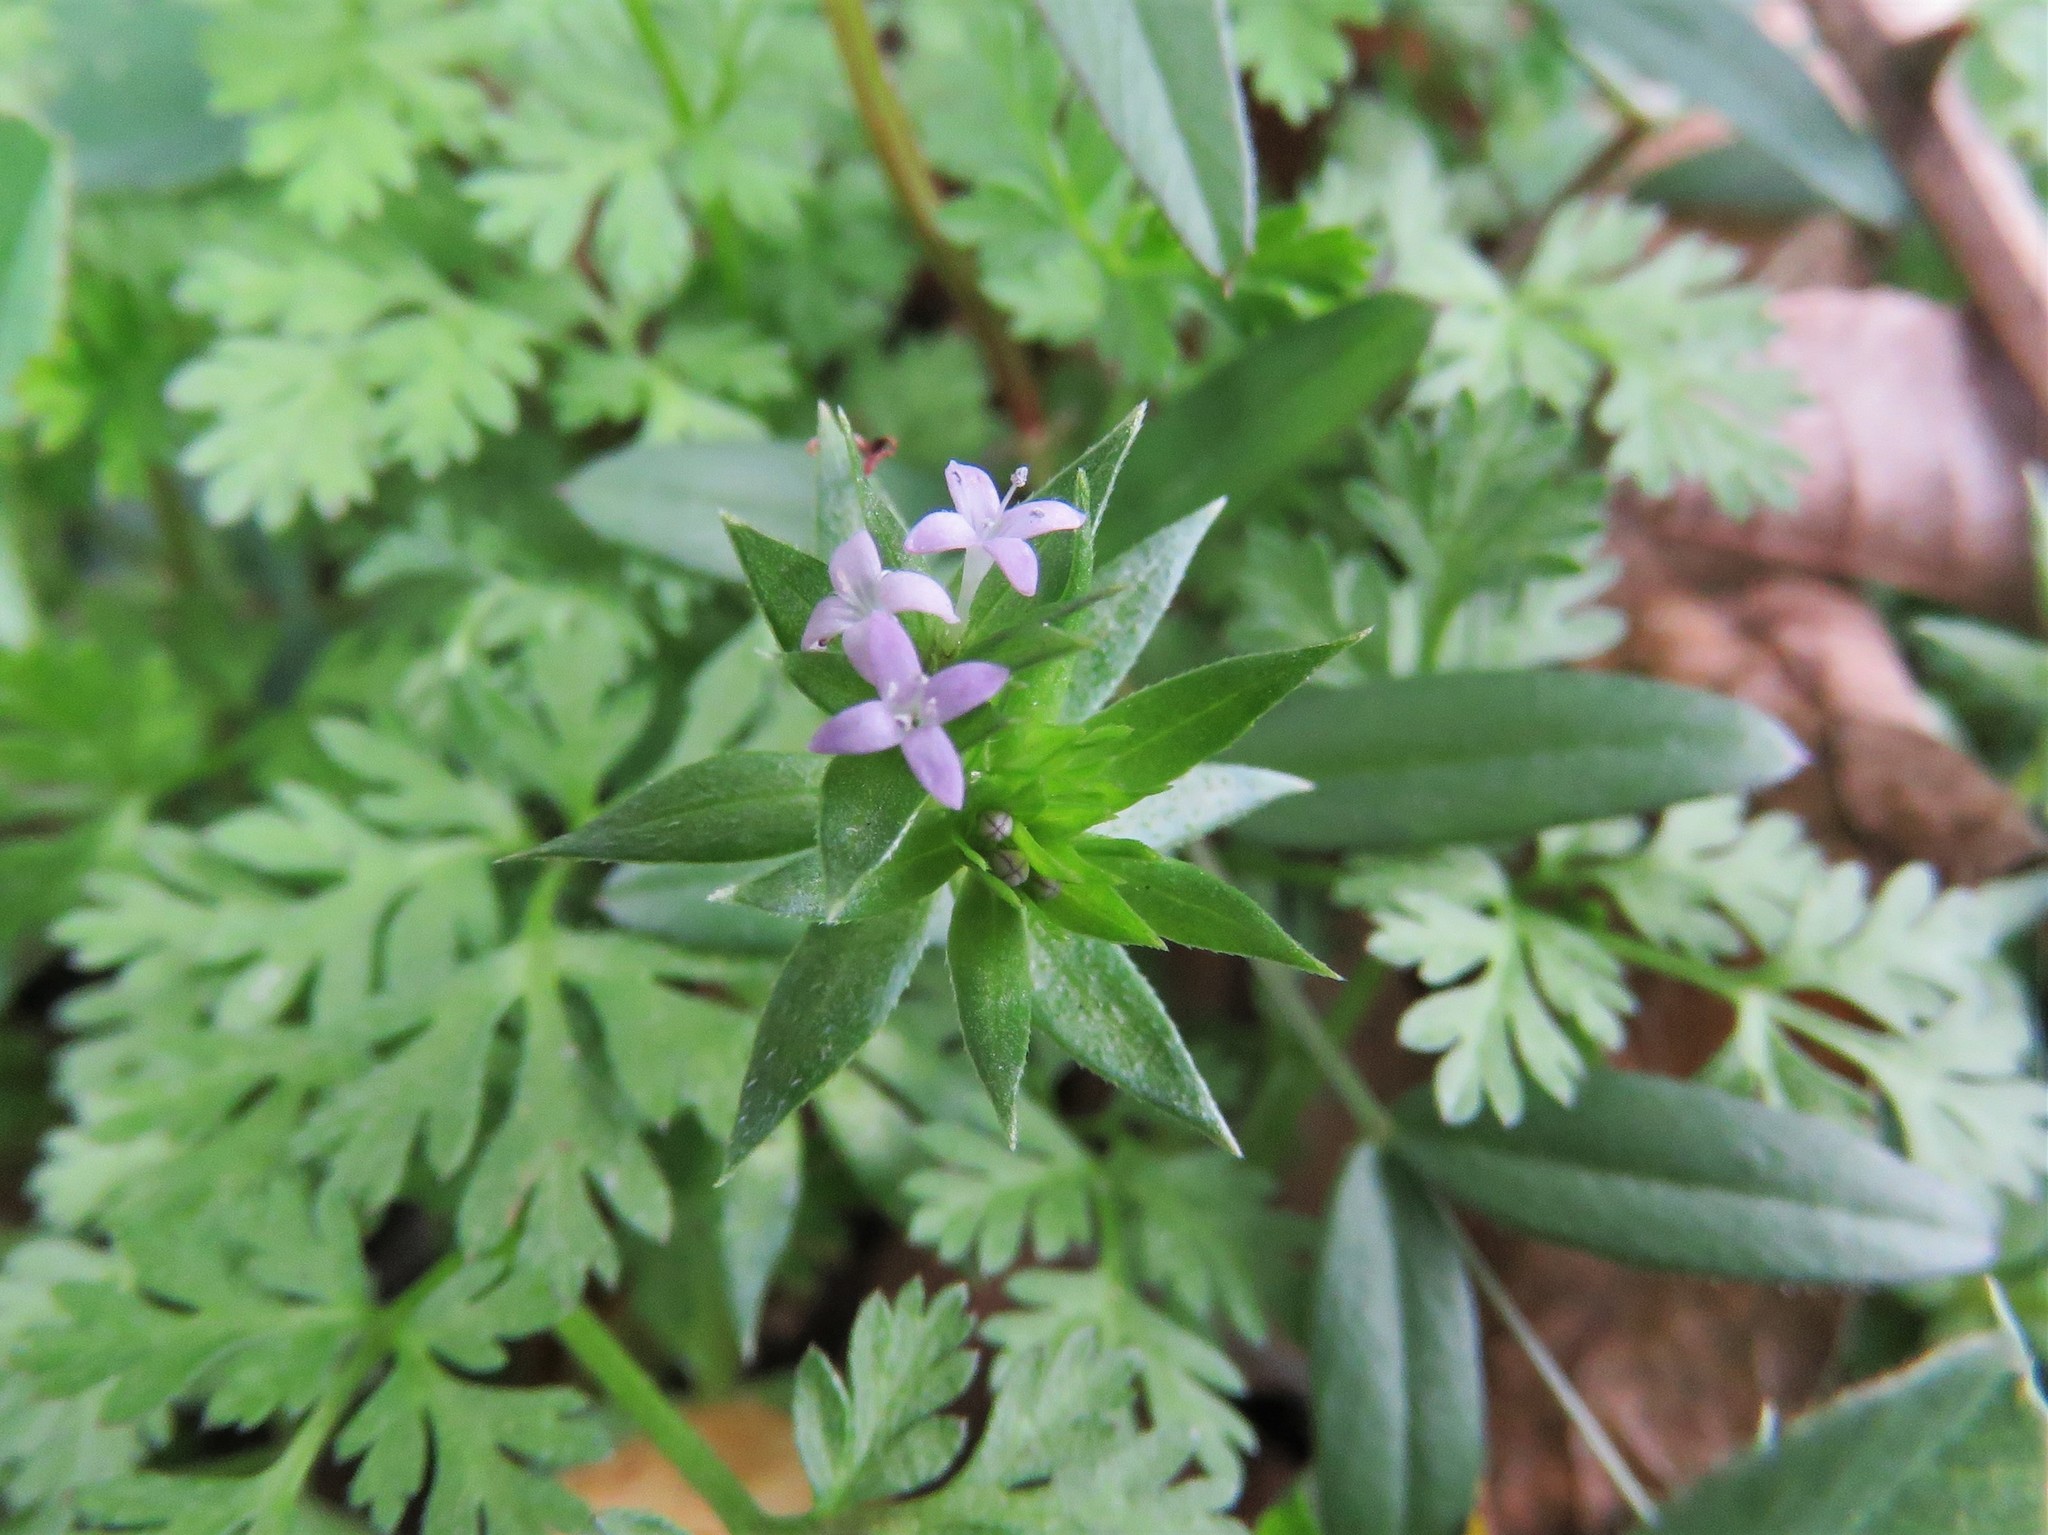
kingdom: Plantae
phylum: Tracheophyta
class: Magnoliopsida
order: Gentianales
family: Rubiaceae
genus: Sherardia
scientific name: Sherardia arvensis
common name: Field madder
